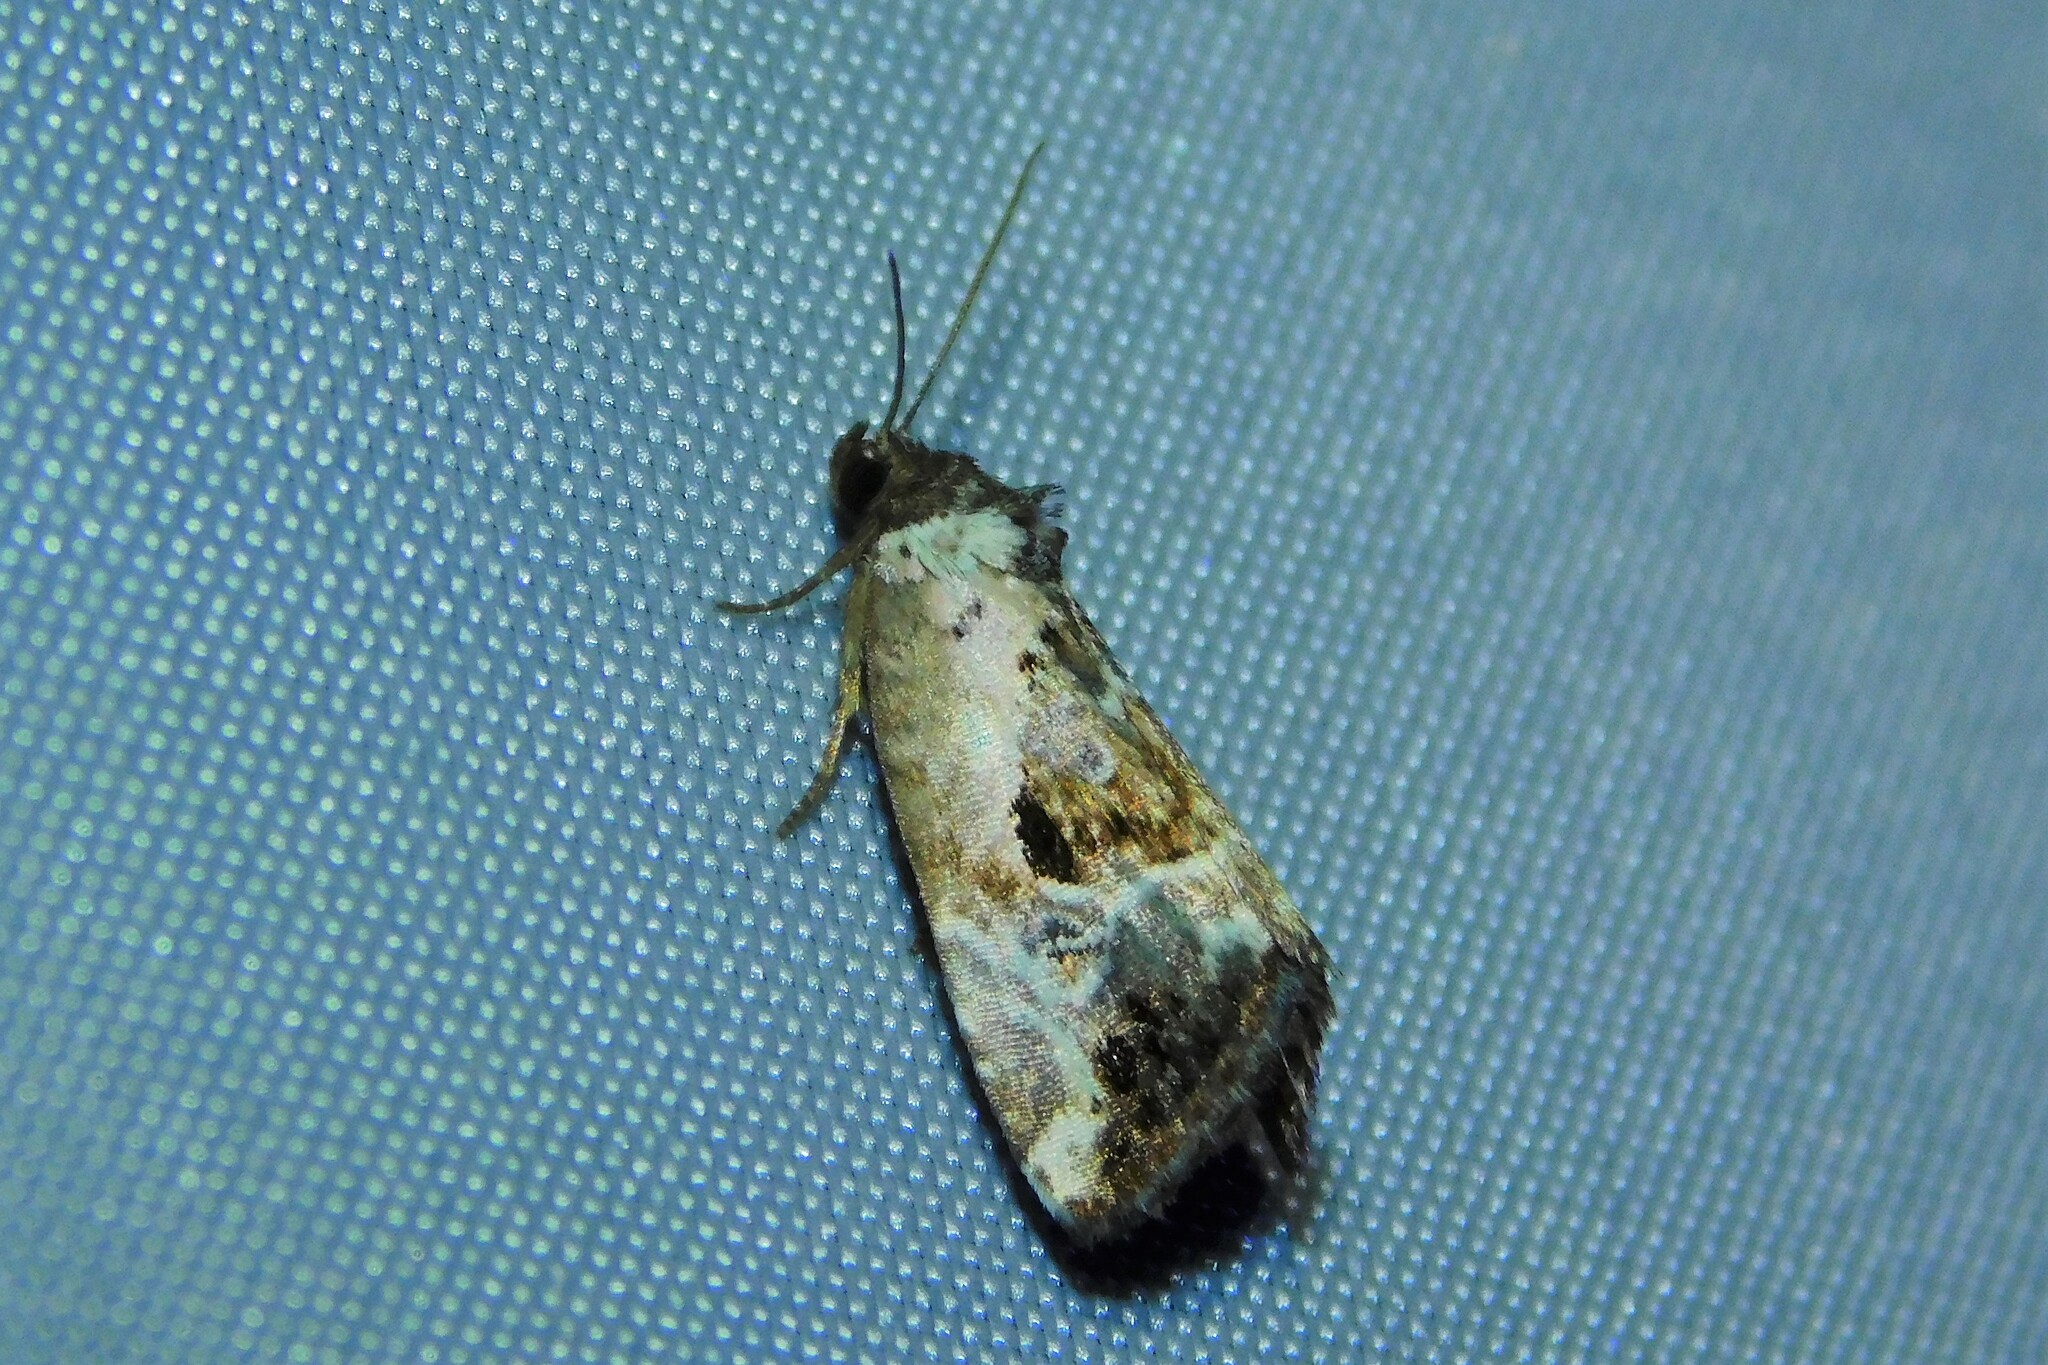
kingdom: Animalia
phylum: Arthropoda
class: Insecta
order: Lepidoptera
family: Noctuidae
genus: Elaphria
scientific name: Elaphria venustula
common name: Rosy marbled
